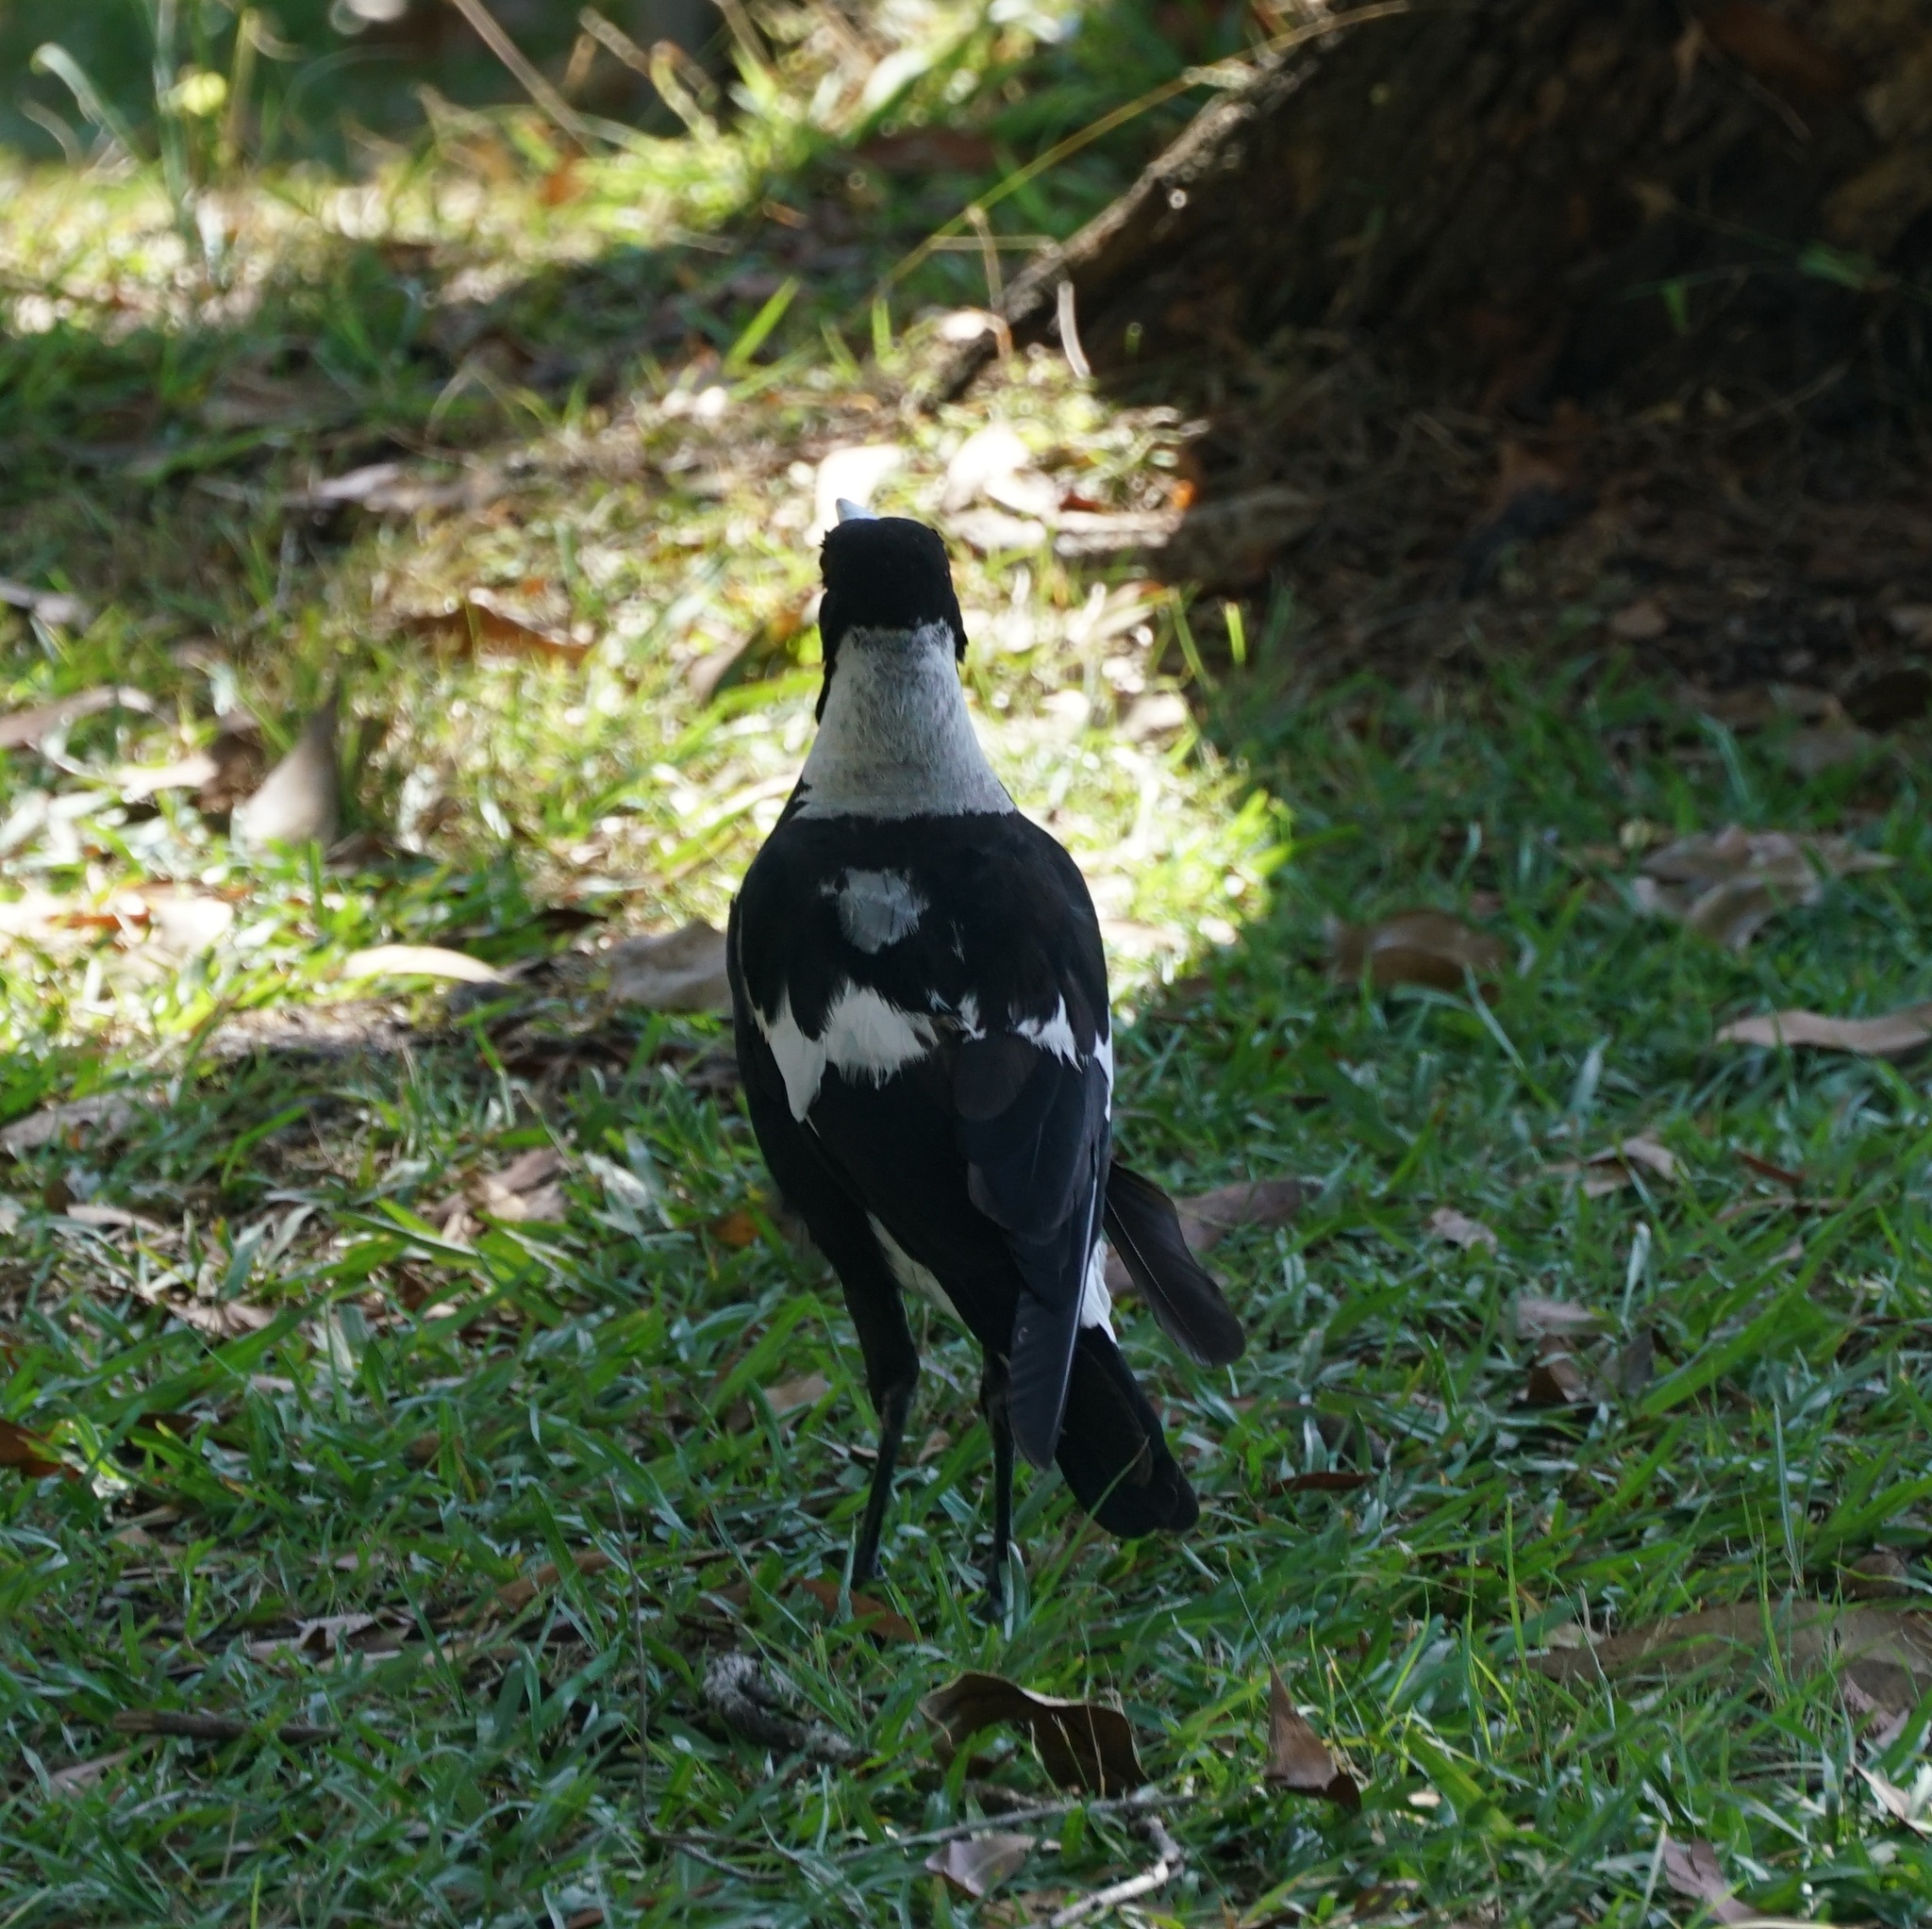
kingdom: Animalia
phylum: Chordata
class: Aves
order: Passeriformes
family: Cracticidae
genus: Gymnorhina
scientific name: Gymnorhina tibicen
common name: Australian magpie
